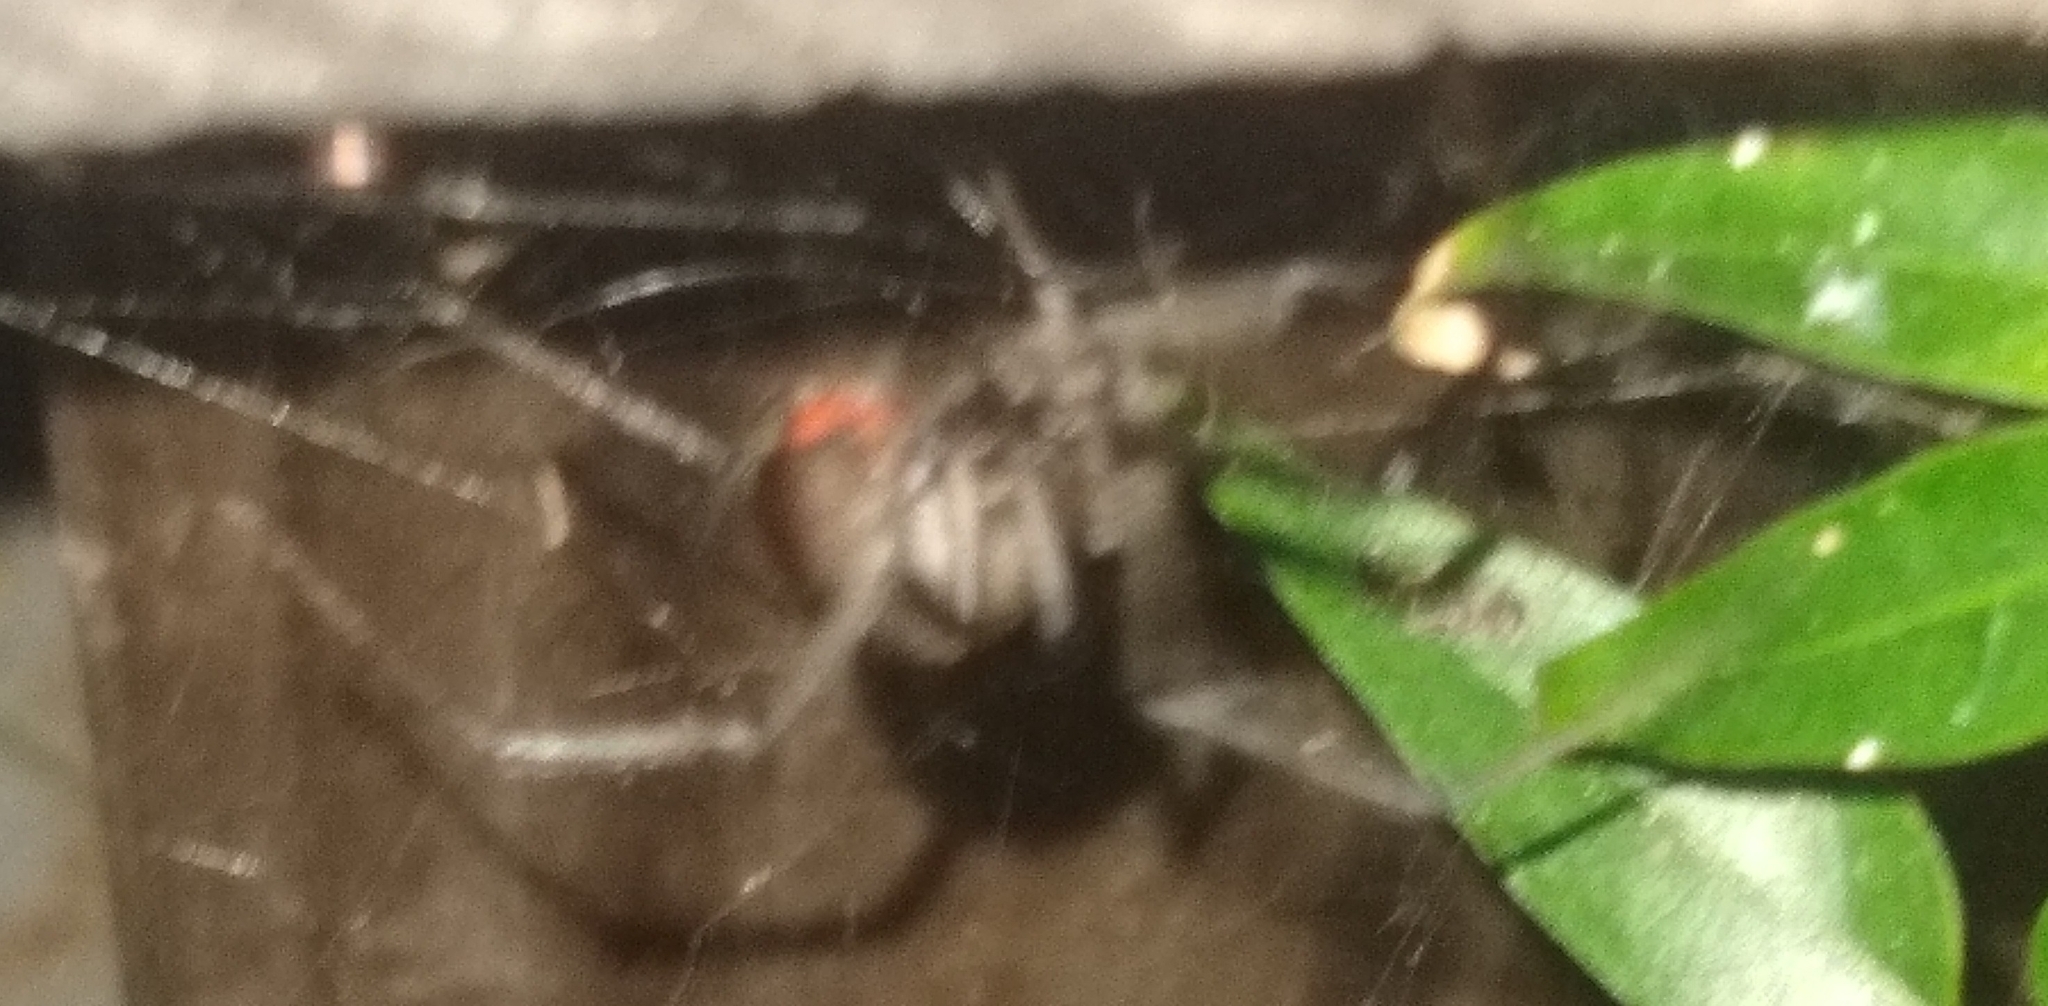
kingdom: Animalia
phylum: Arthropoda
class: Arachnida
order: Araneae
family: Theridiidae
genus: Latrodectus
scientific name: Latrodectus geometricus
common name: Brown widow spider
